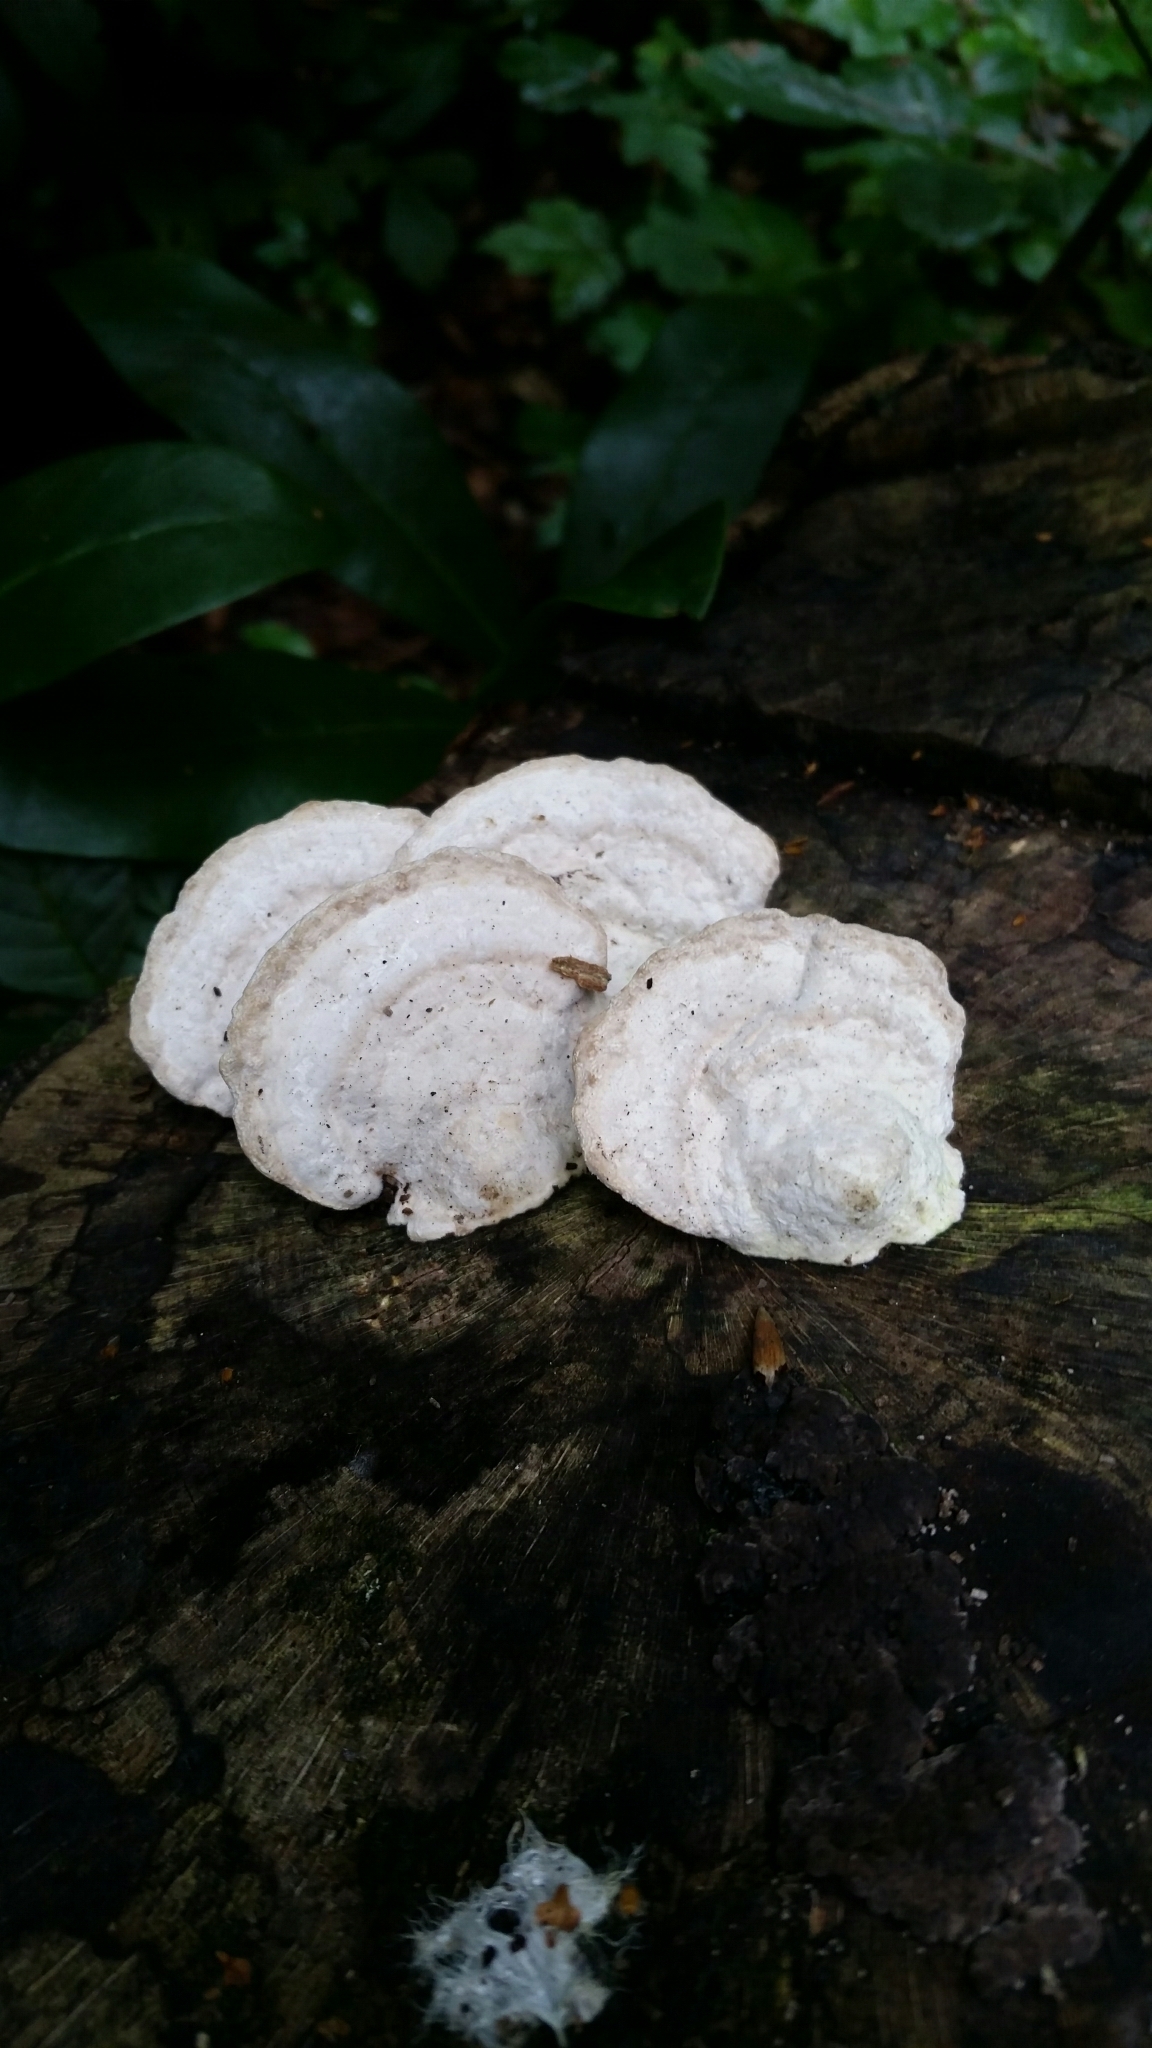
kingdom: Fungi
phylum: Basidiomycota
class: Agaricomycetes
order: Polyporales
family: Polyporaceae
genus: Trametes
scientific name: Trametes gibbosa
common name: Lumpy bracket
